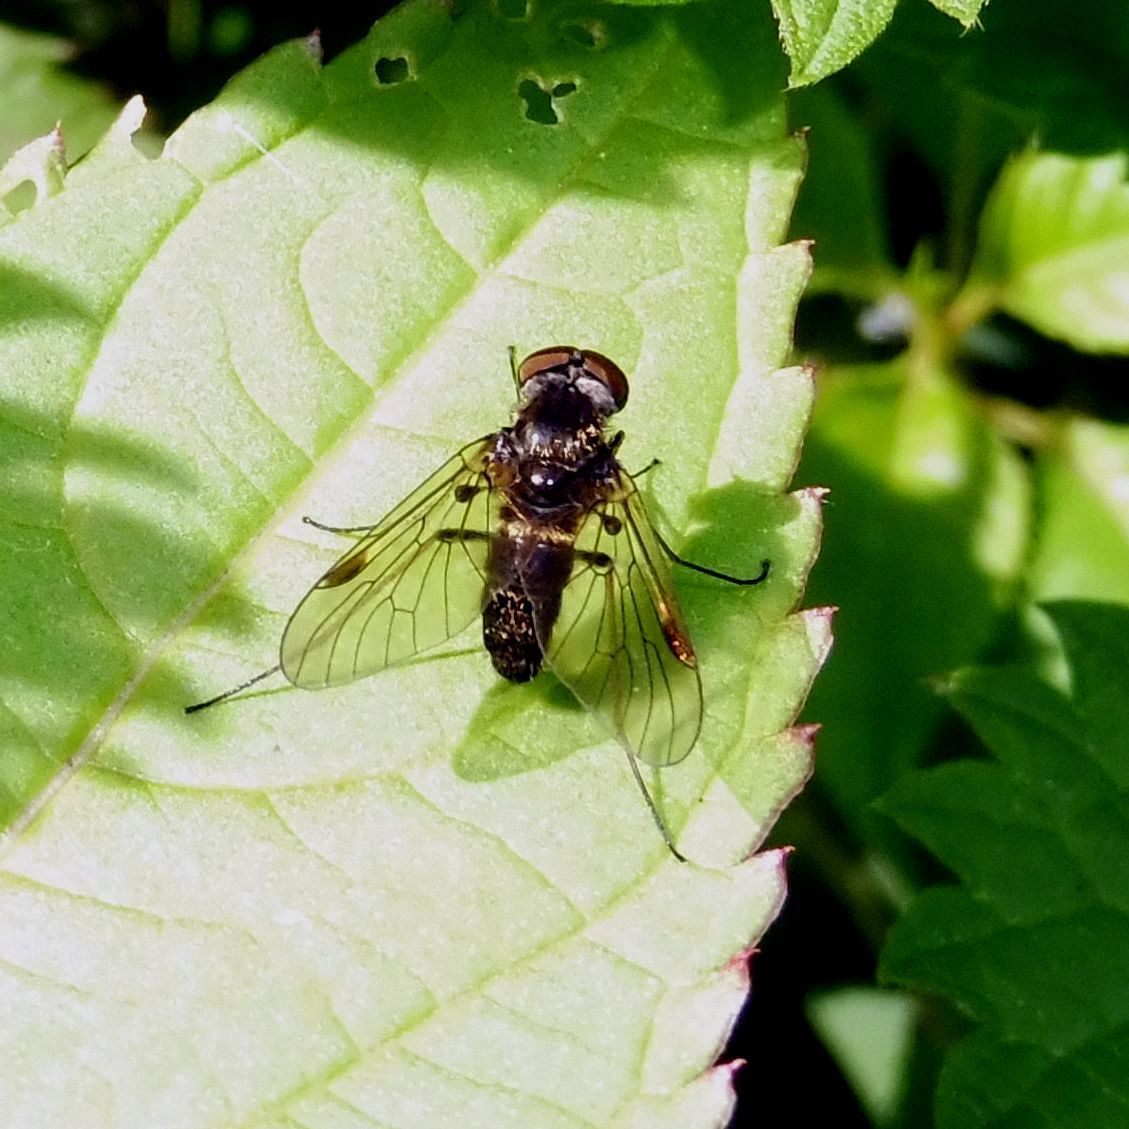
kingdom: Animalia
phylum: Arthropoda
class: Insecta
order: Diptera
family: Rhagionidae
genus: Chrysopilus
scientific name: Chrysopilus cristatus
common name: Black snipefly
